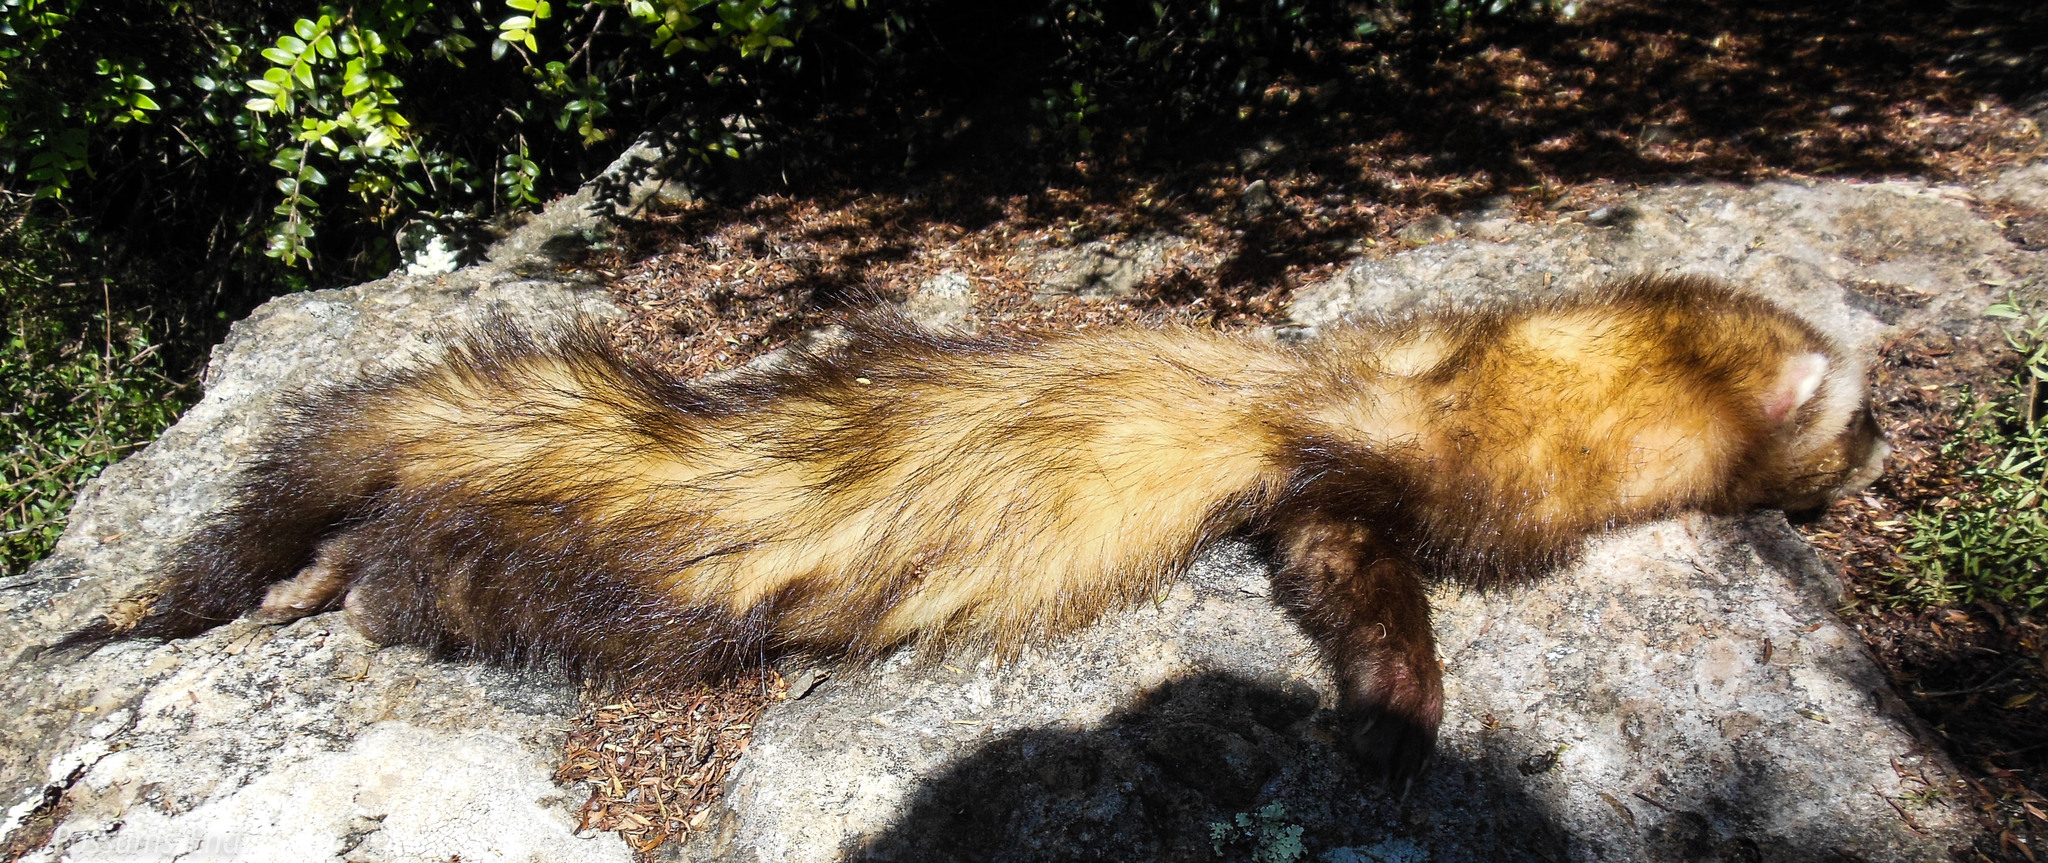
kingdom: Animalia
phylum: Chordata
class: Mammalia
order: Carnivora
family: Mustelidae
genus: Mustela
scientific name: Mustela putorius
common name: European polecat
